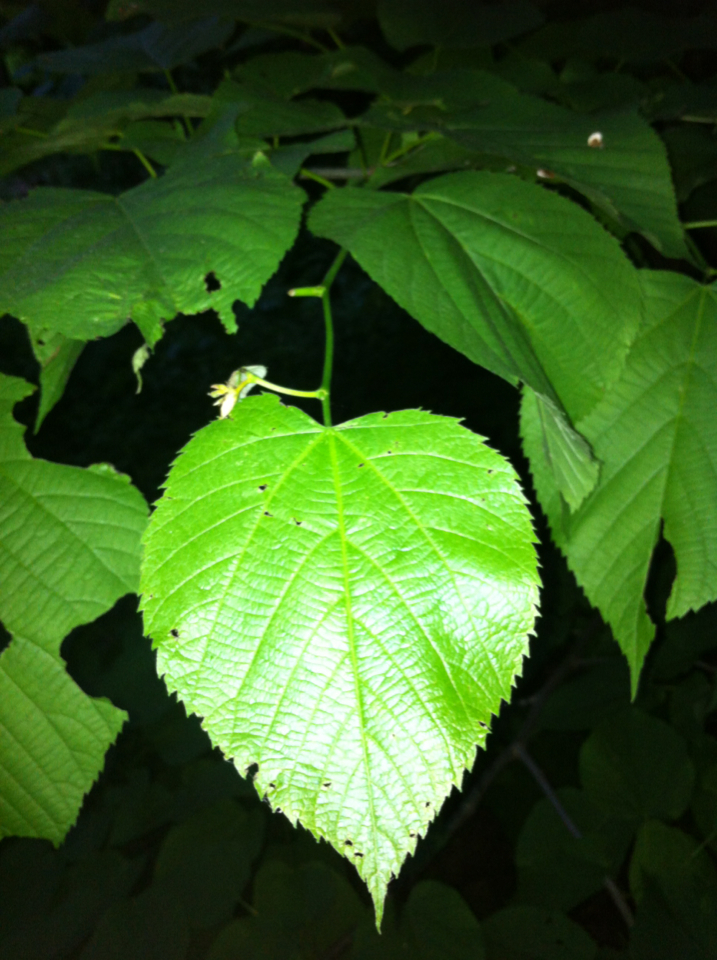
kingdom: Plantae
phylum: Tracheophyta
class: Magnoliopsida
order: Malvales
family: Malvaceae
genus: Tilia
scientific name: Tilia americana
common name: Basswood
